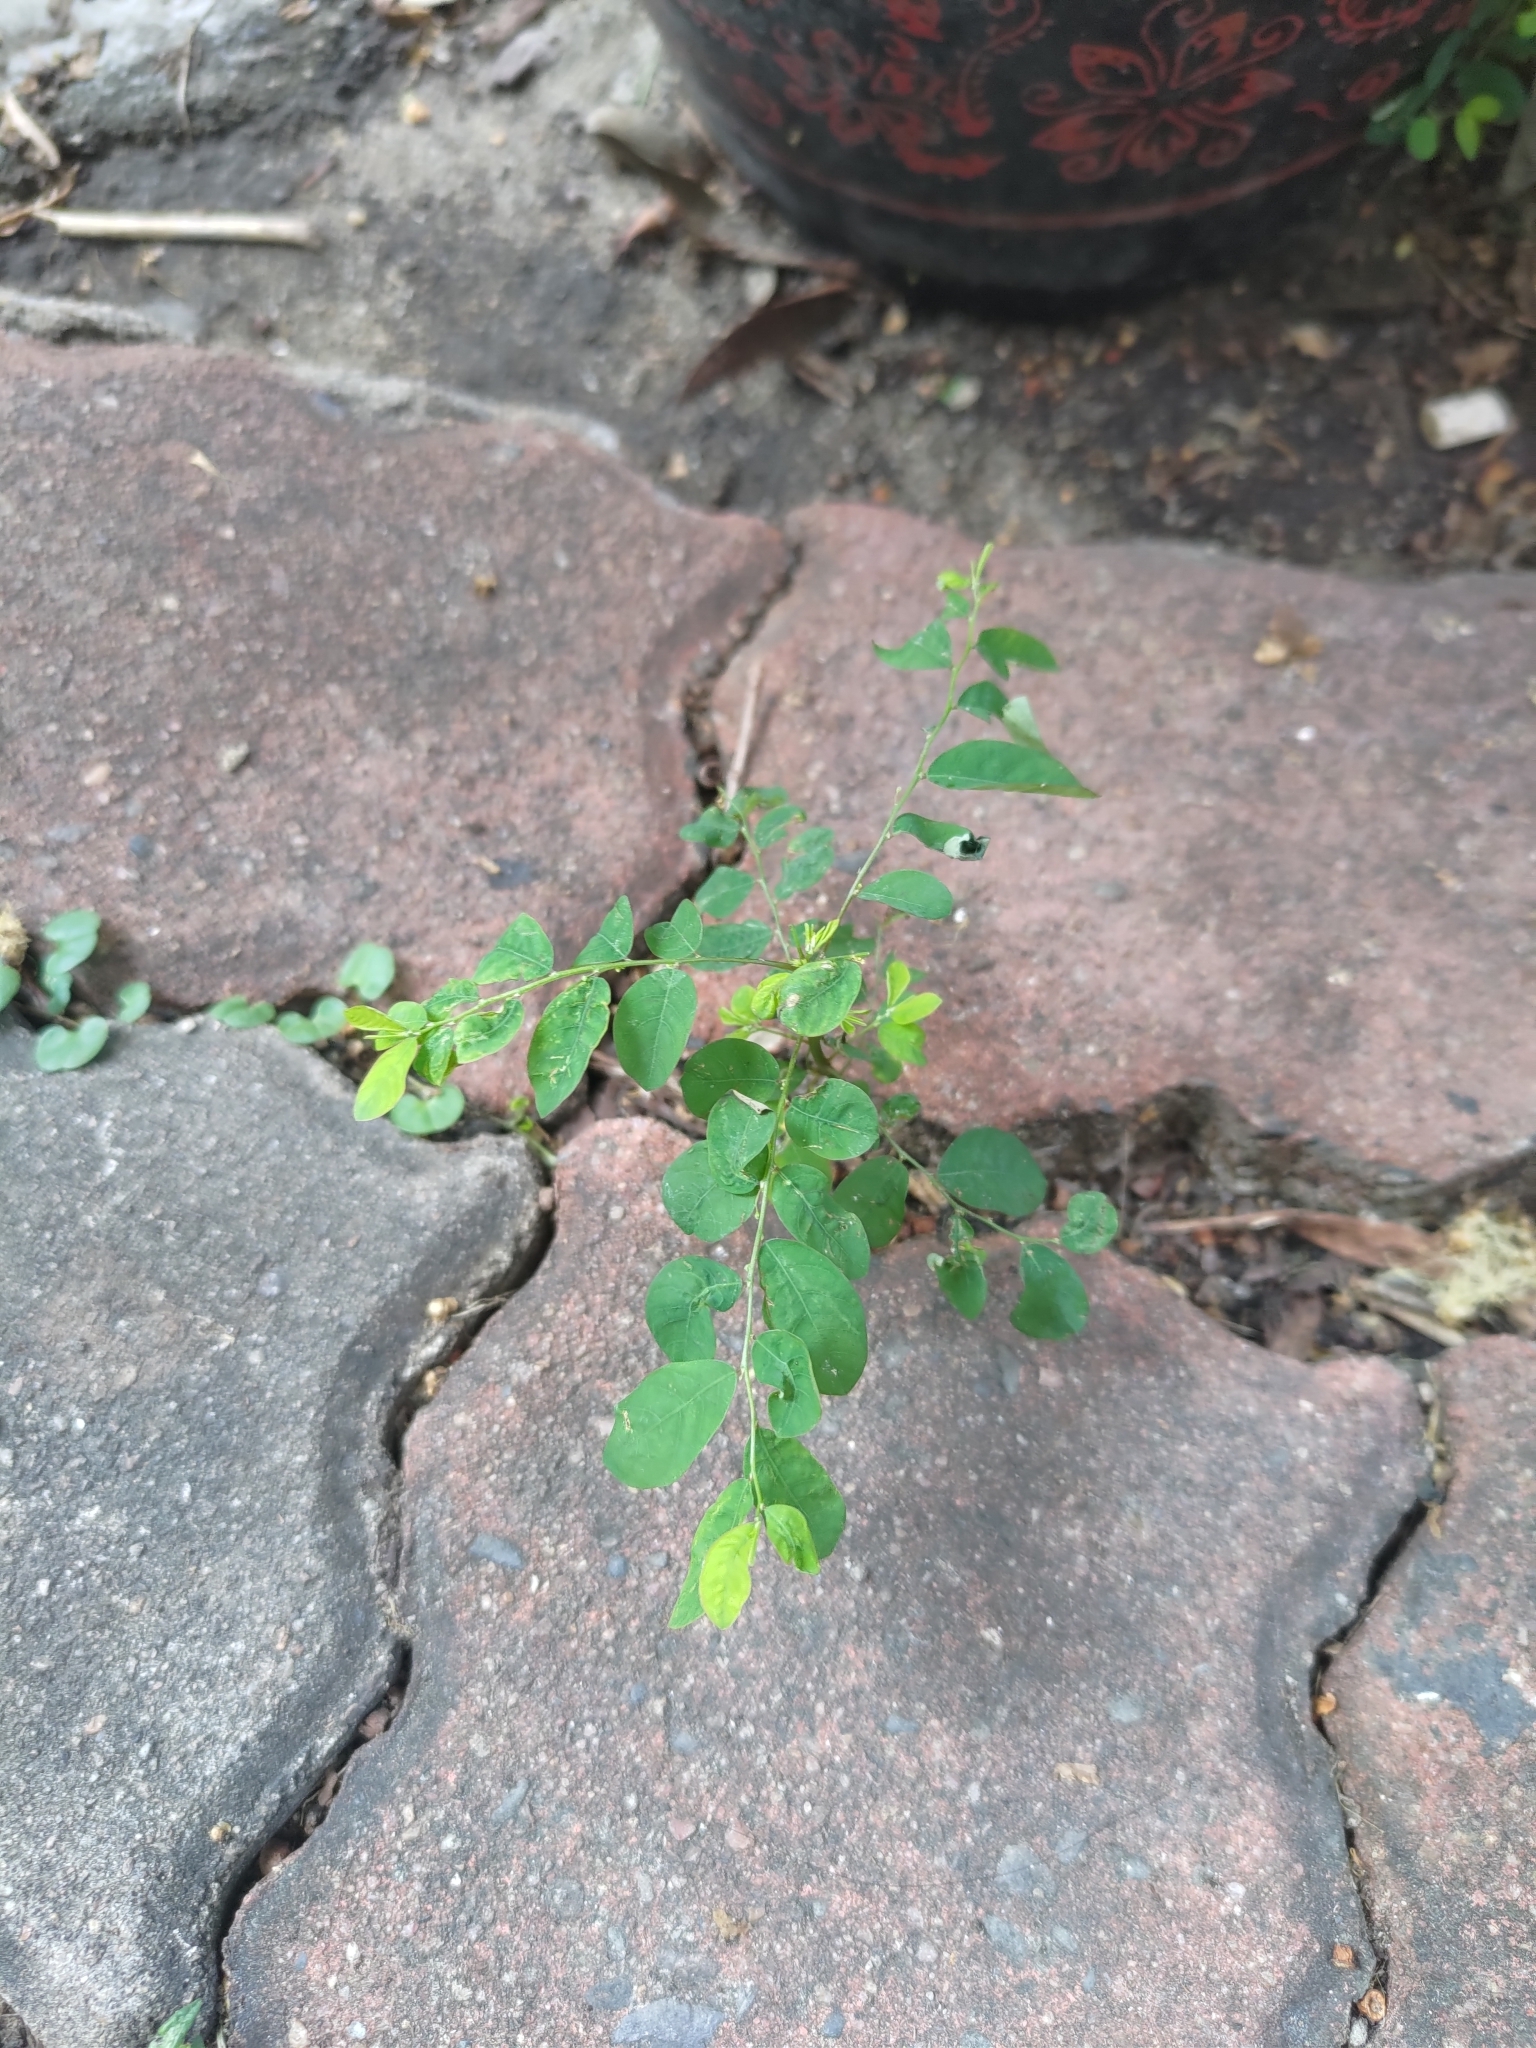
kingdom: Plantae
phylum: Tracheophyta
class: Magnoliopsida
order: Malpighiales
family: Phyllanthaceae
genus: Phyllanthus
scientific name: Phyllanthus tenellus
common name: Mascarene island leaf-flower
